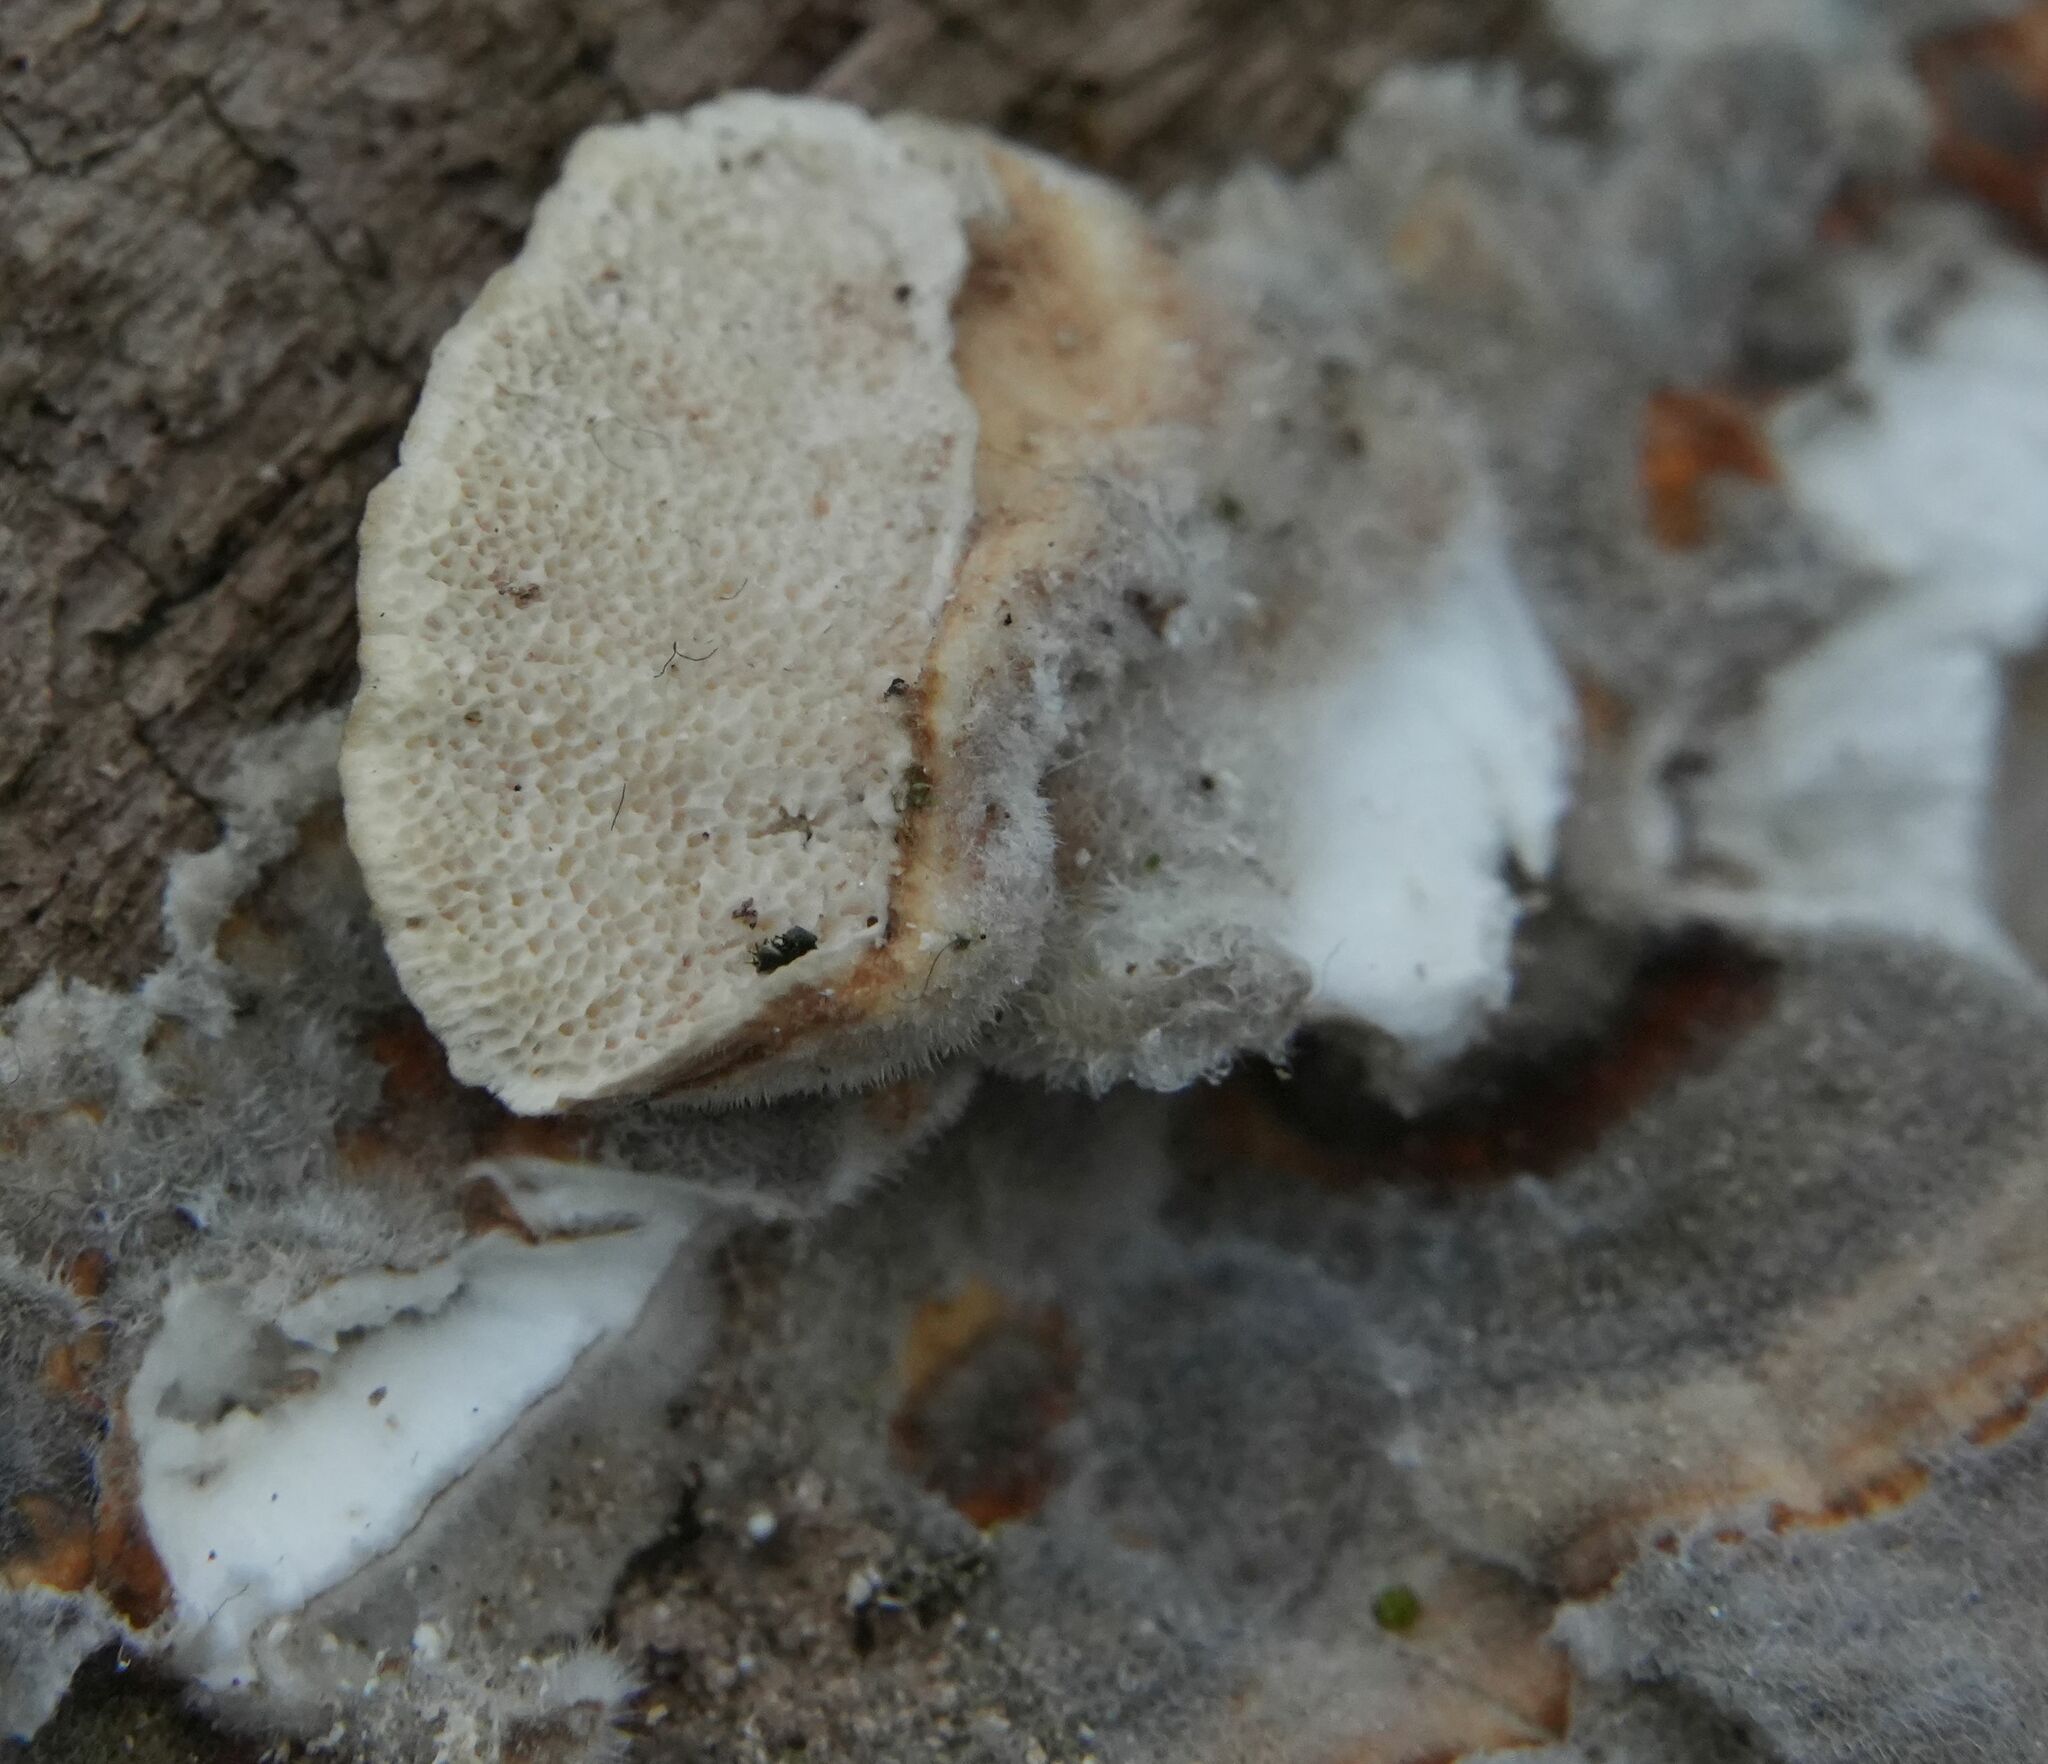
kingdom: Fungi
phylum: Basidiomycota
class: Agaricomycetes
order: Polyporales
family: Polyporaceae
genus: Trametes
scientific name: Trametes versicolor
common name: Turkeytail
